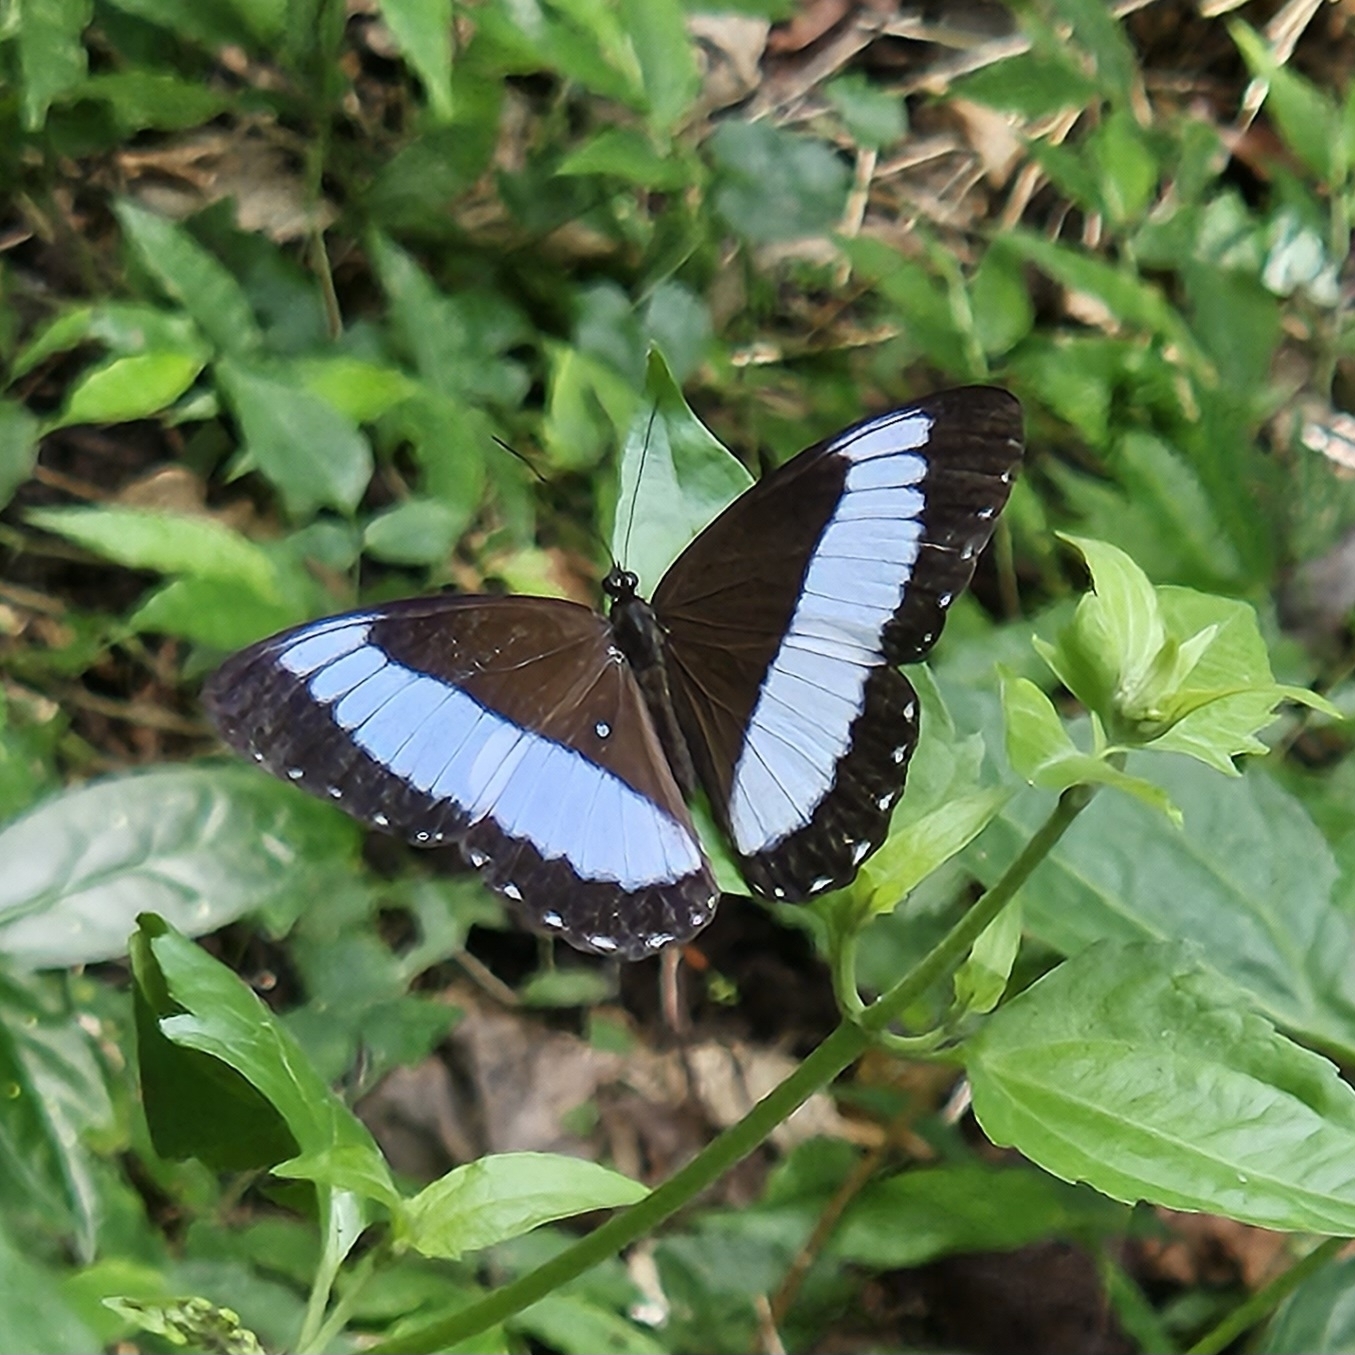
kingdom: Animalia
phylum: Arthropoda
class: Insecta
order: Lepidoptera
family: Nymphalidae
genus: Zethera
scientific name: Zethera pimplea
